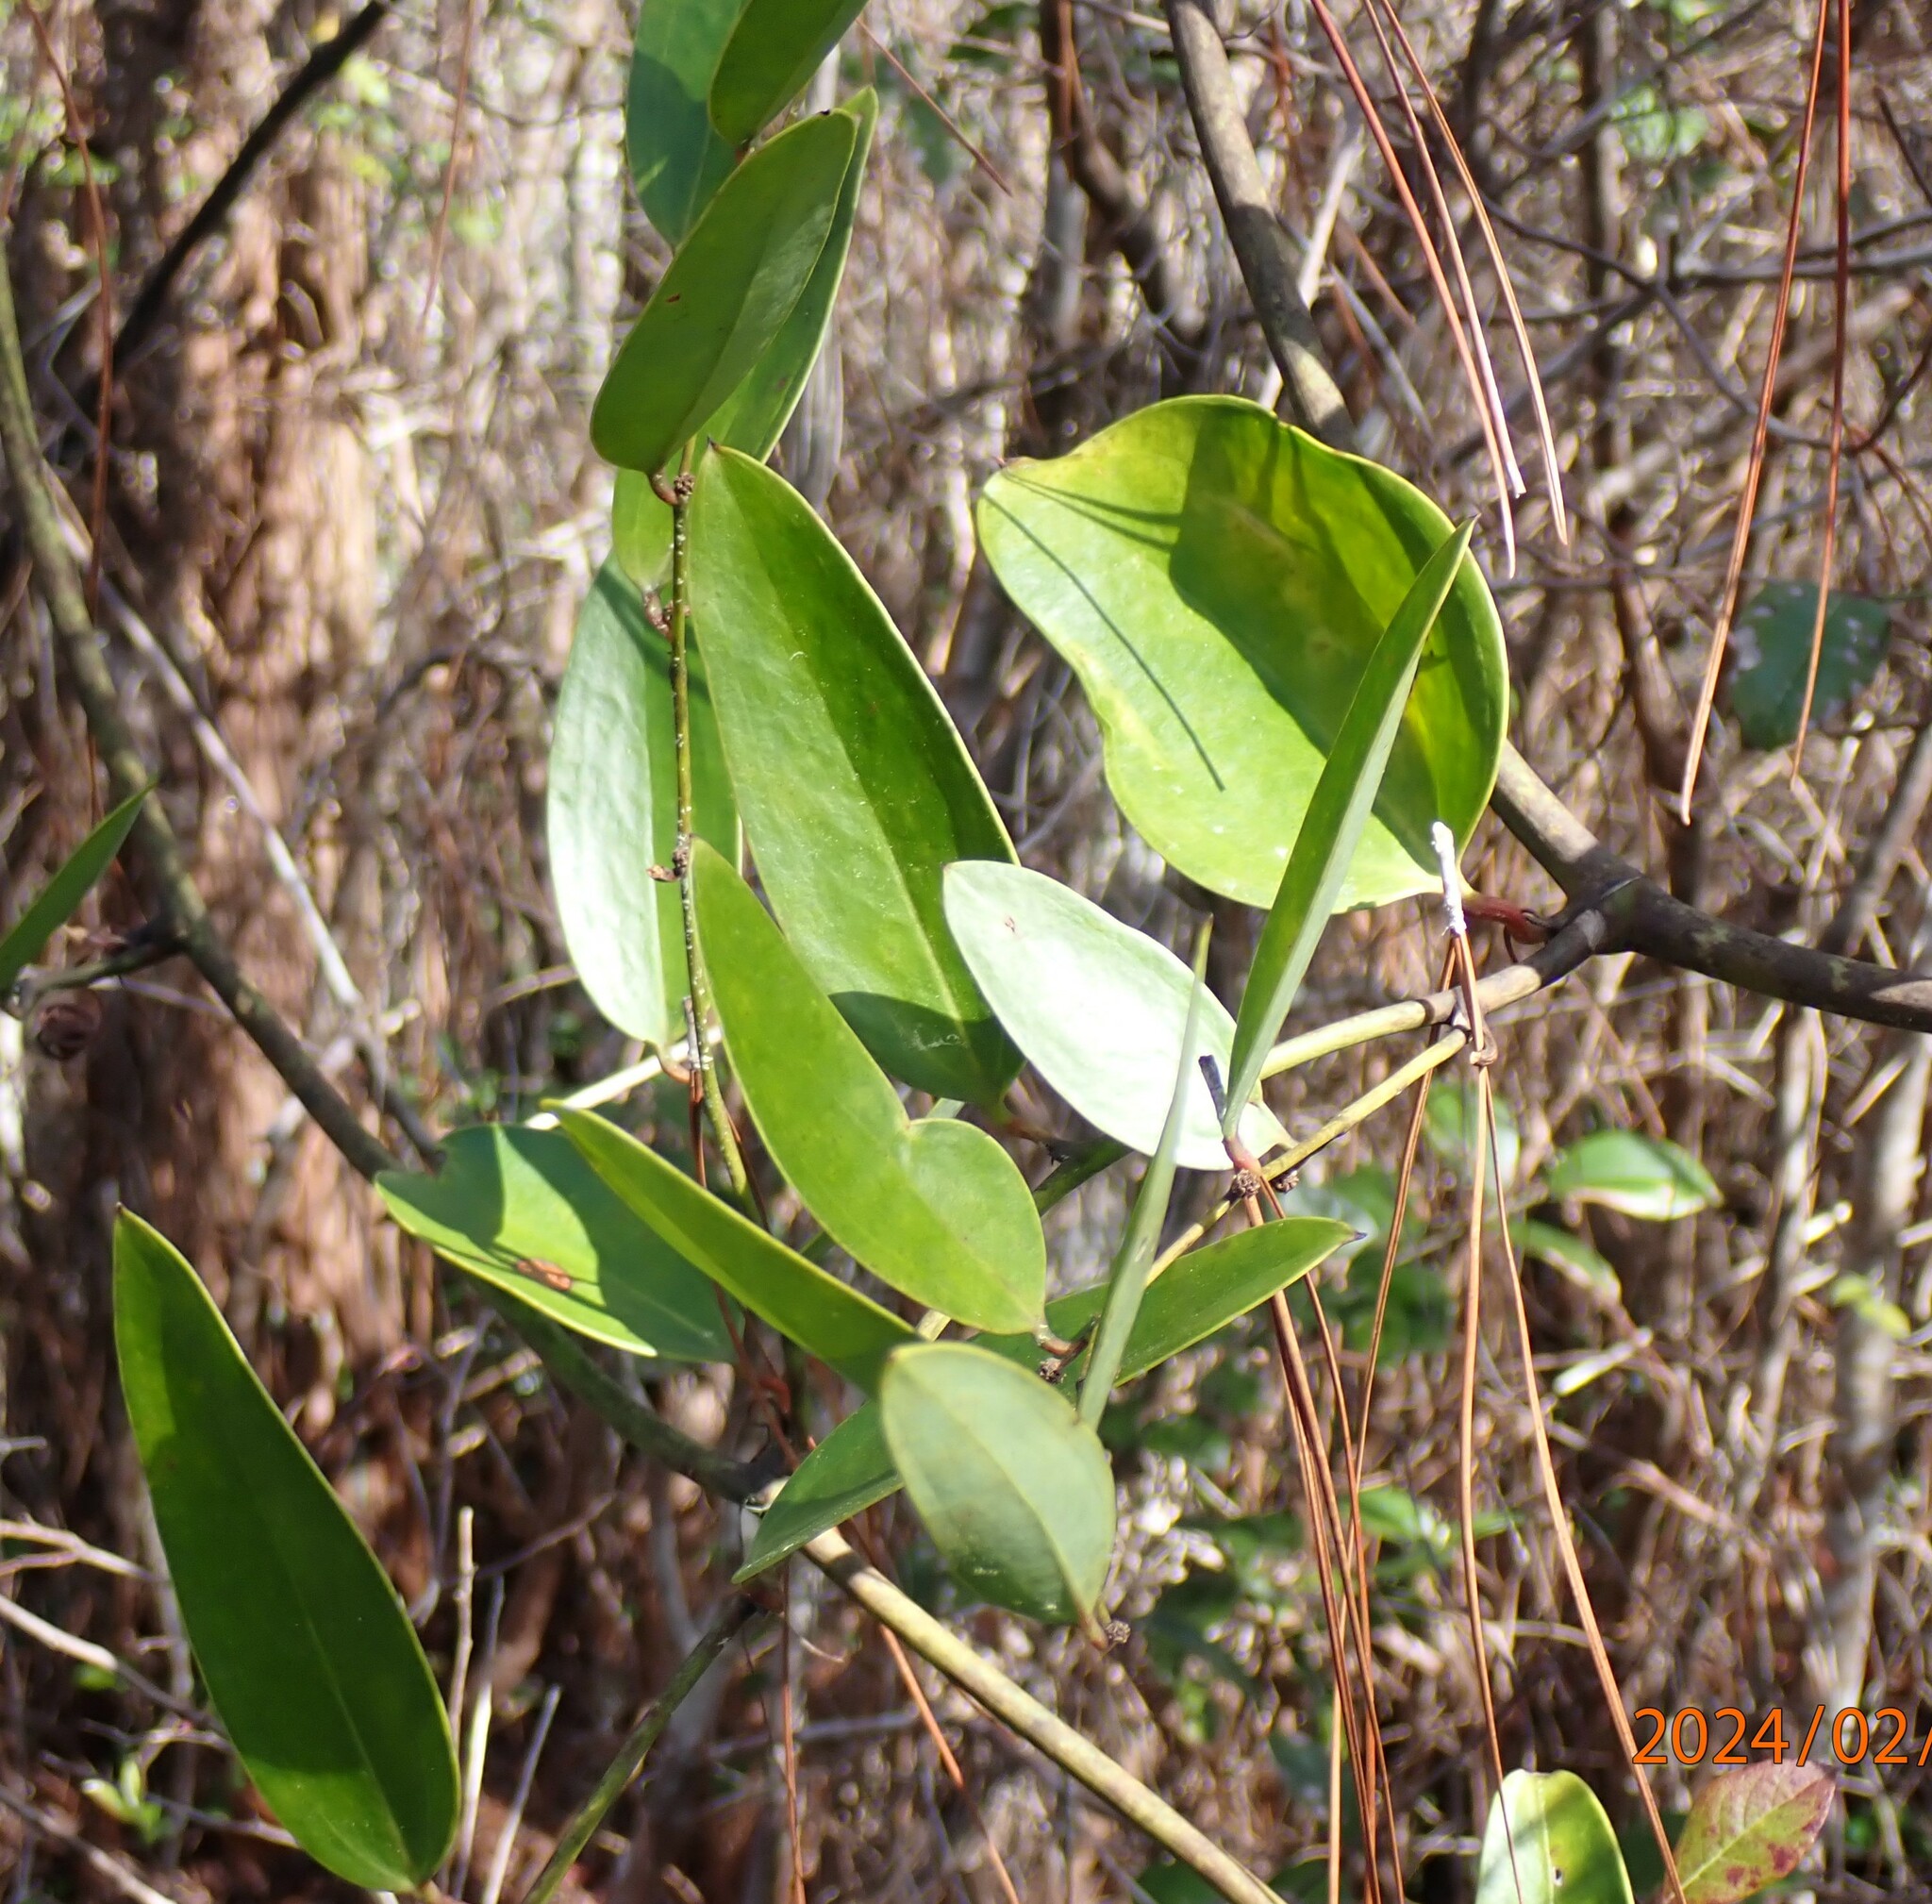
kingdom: Plantae
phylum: Tracheophyta
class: Liliopsida
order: Liliales
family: Smilacaceae
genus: Smilax
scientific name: Smilax laurifolia
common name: Bamboovine
